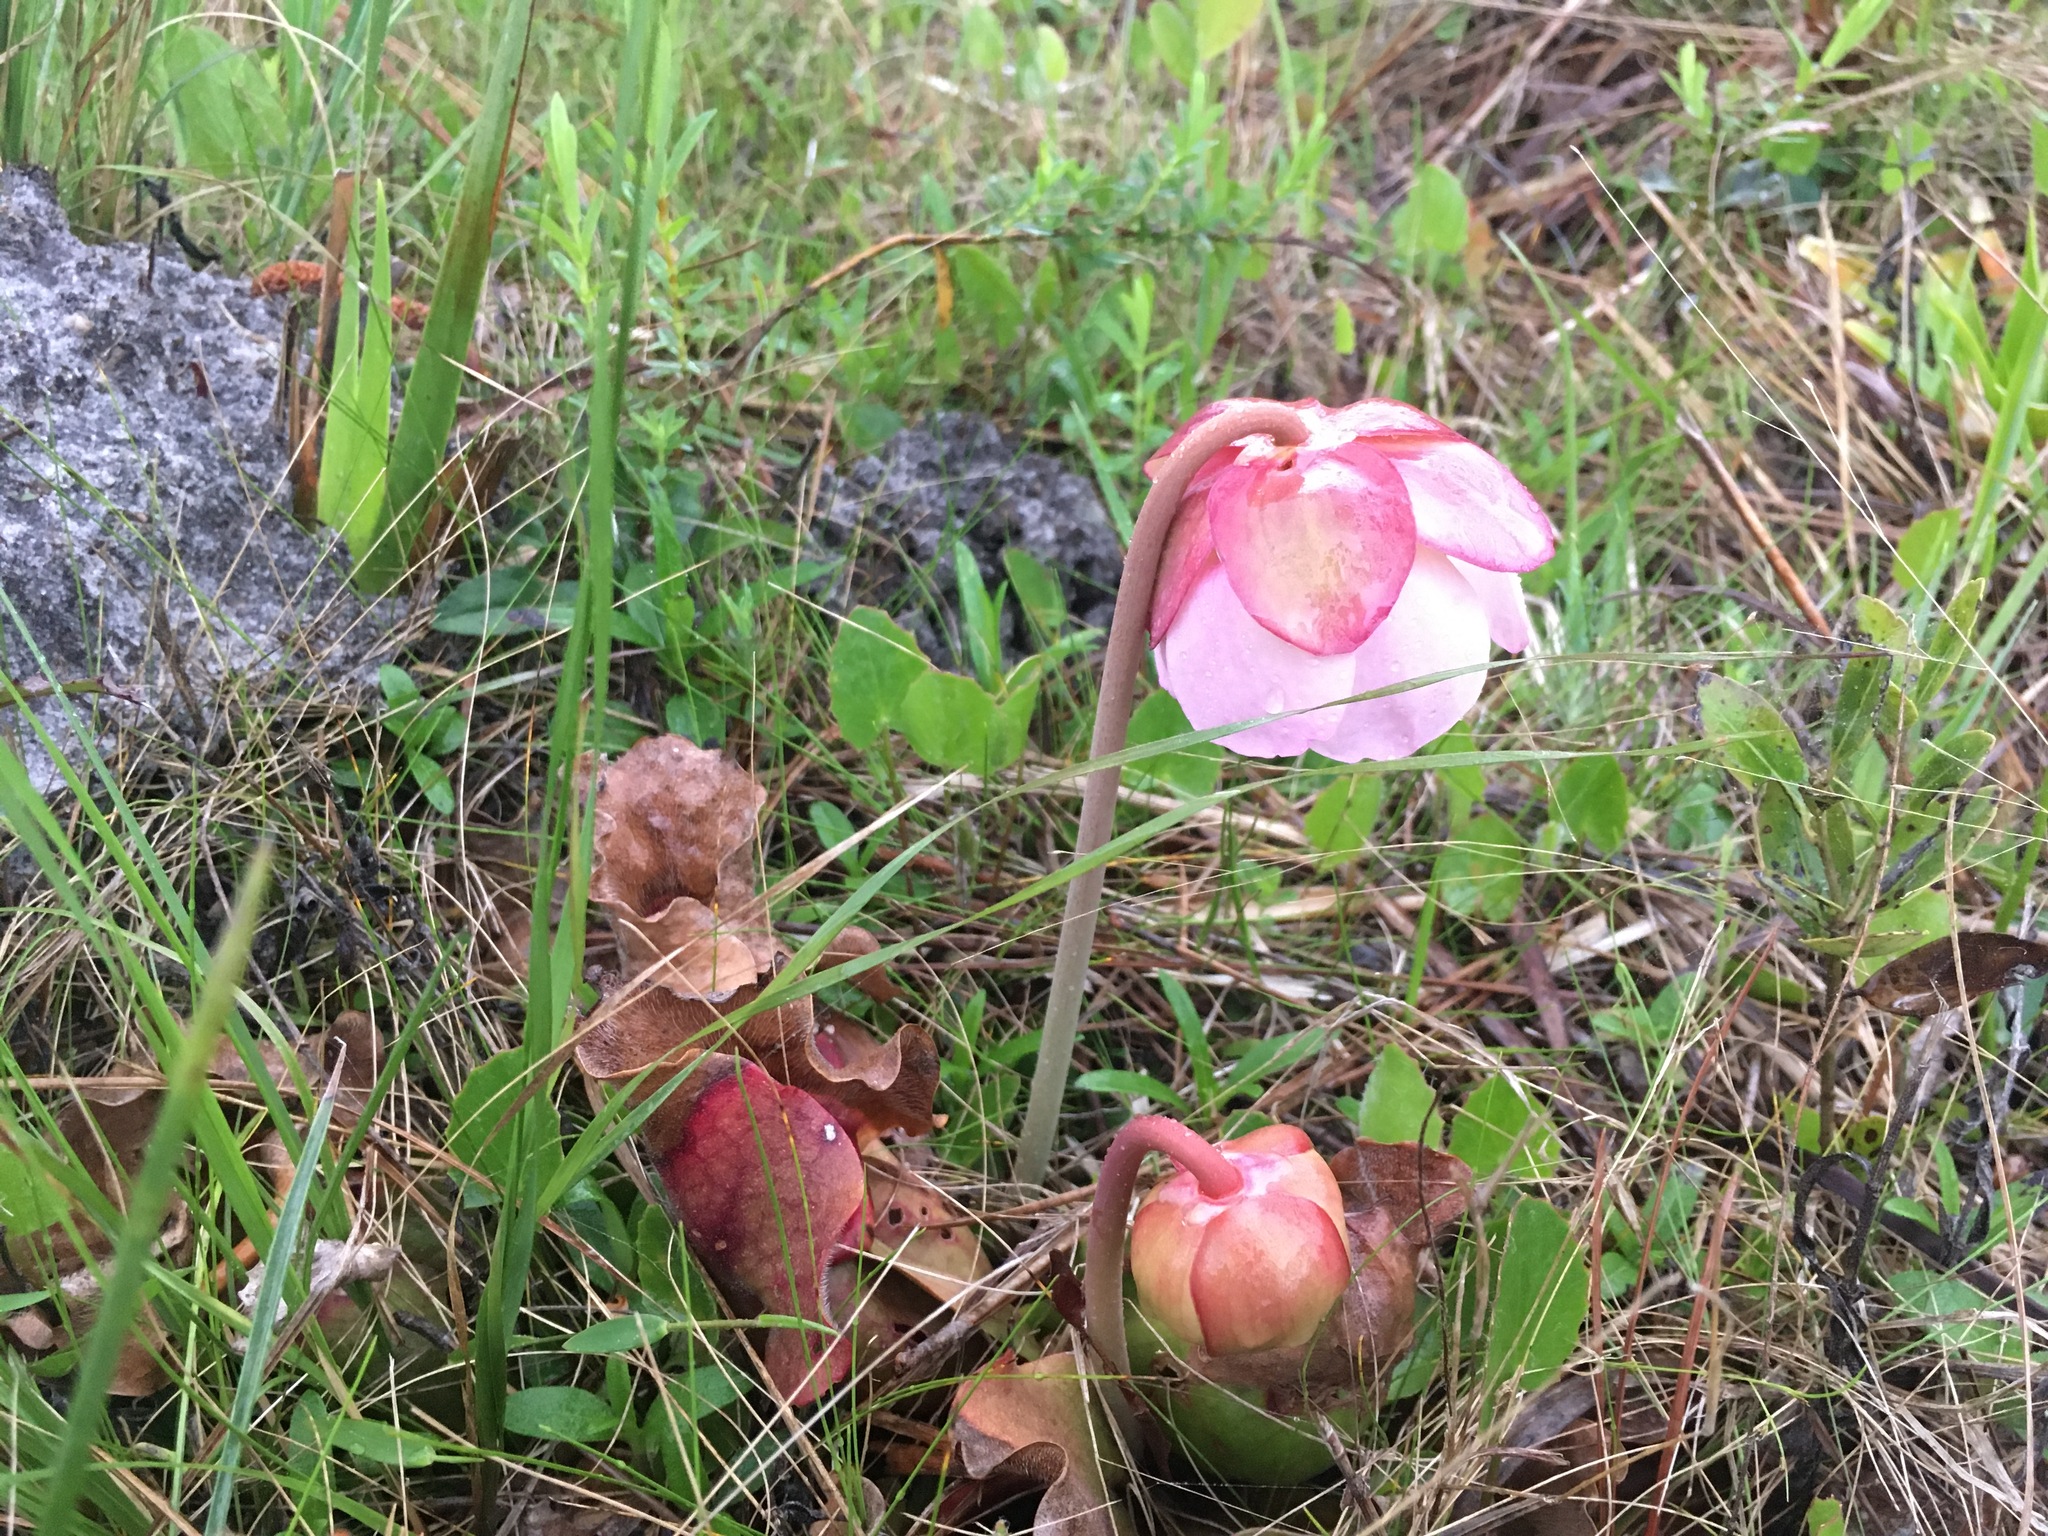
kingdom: Plantae
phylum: Tracheophyta
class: Magnoliopsida
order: Ericales
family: Sarraceniaceae
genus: Sarracenia
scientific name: Sarracenia rosea
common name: Pink pitcherplant
